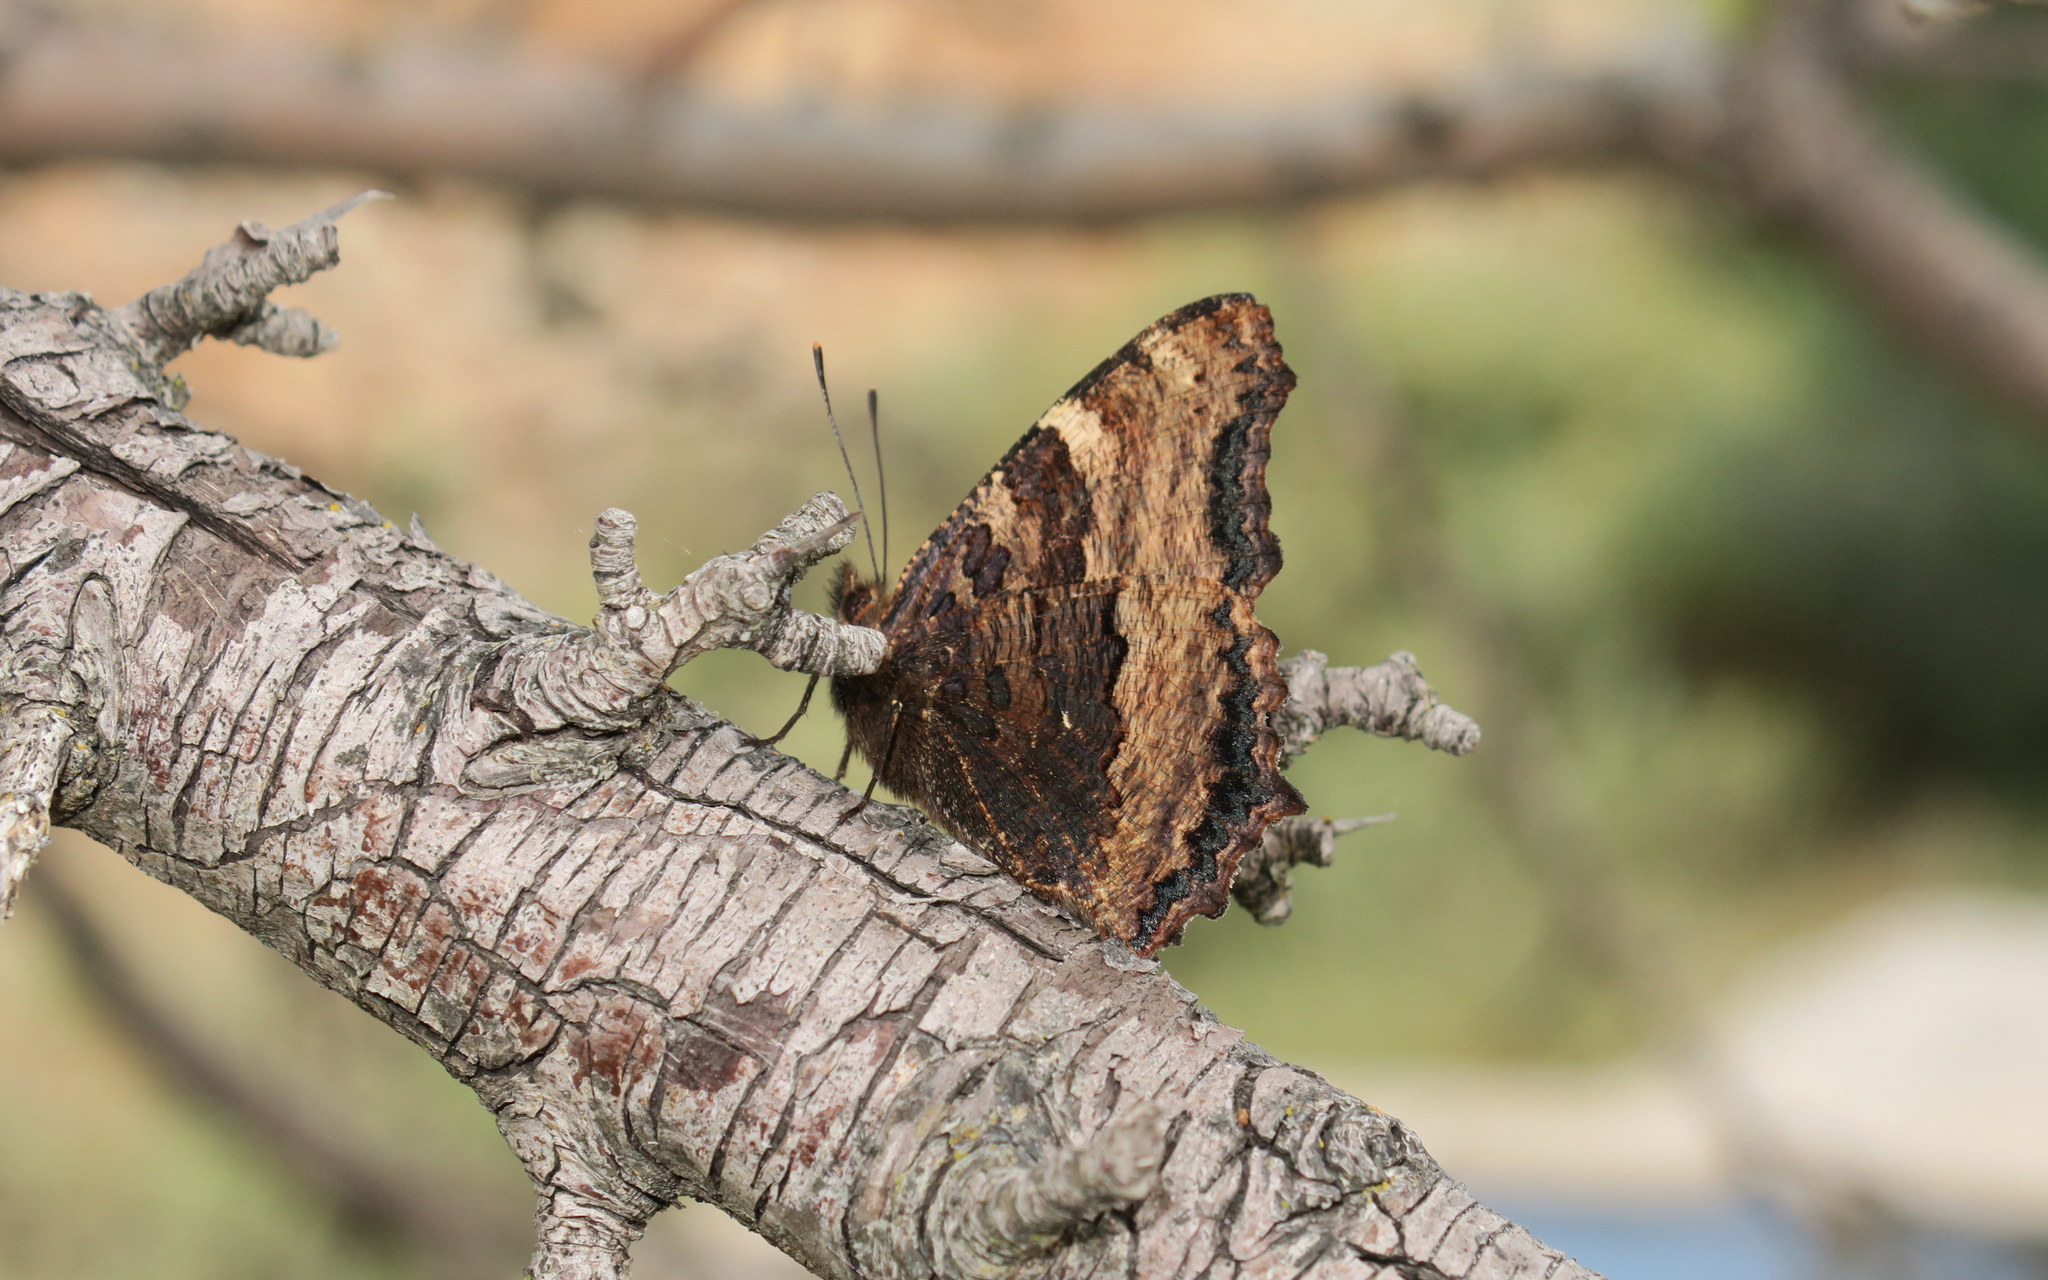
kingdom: Animalia
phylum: Arthropoda
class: Insecta
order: Lepidoptera
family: Nymphalidae
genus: Nymphalis
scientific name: Nymphalis polychloros
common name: Large tortoiseshell
